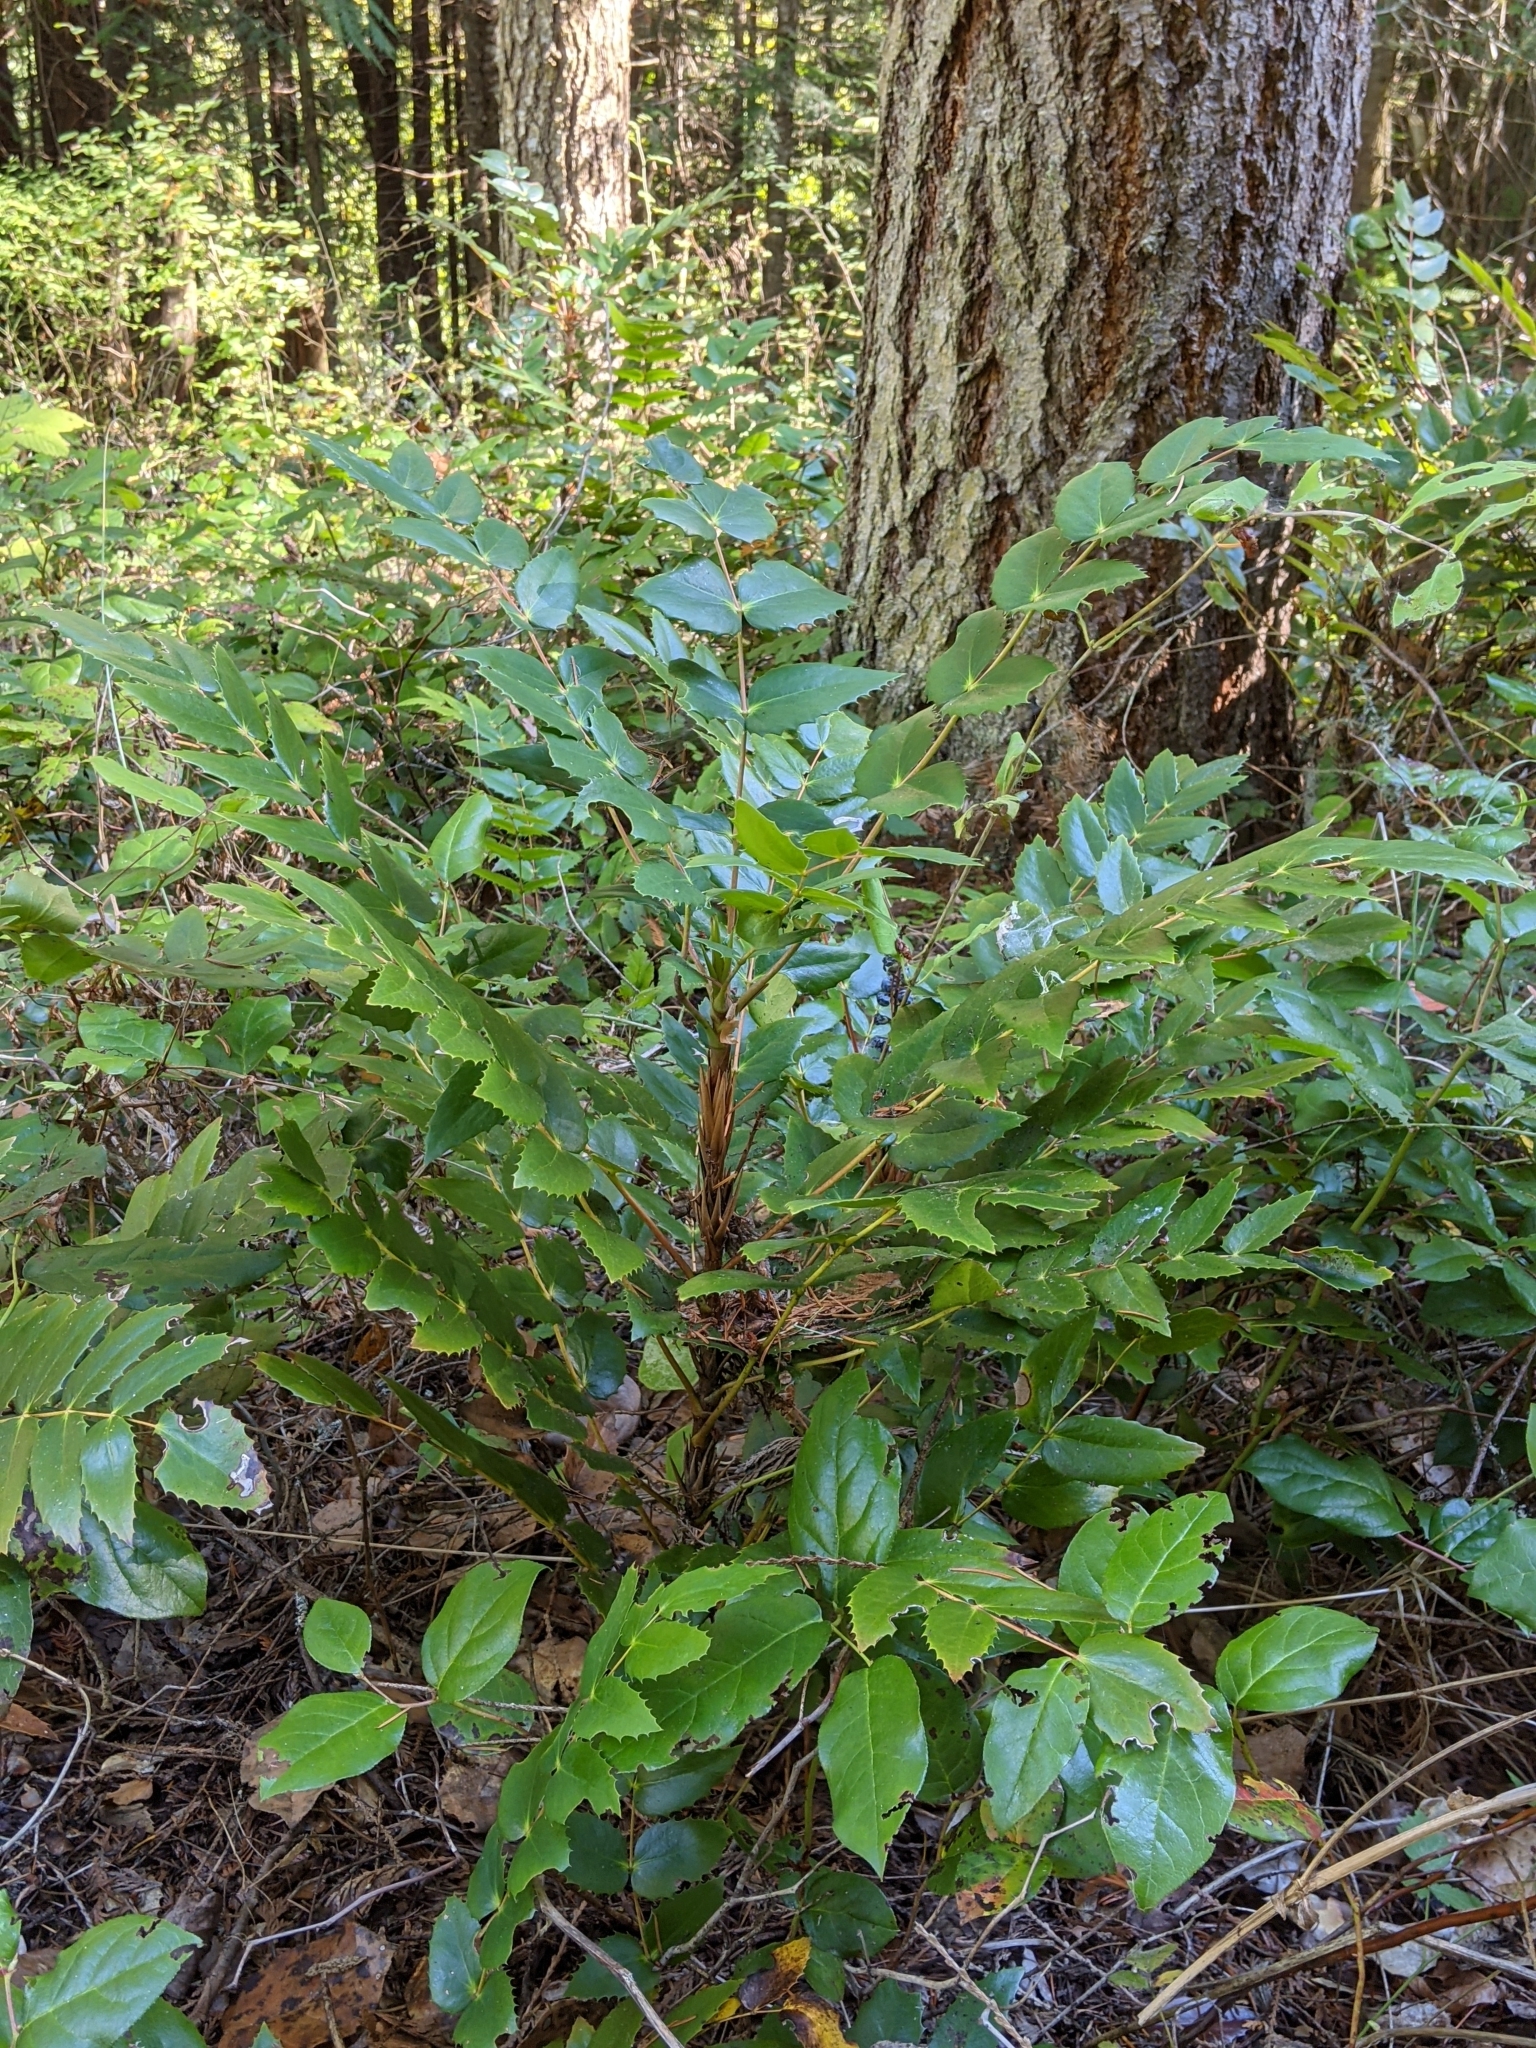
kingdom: Plantae
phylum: Tracheophyta
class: Magnoliopsida
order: Ranunculales
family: Berberidaceae
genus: Mahonia
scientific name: Mahonia nervosa
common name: Cascade oregon-grape
